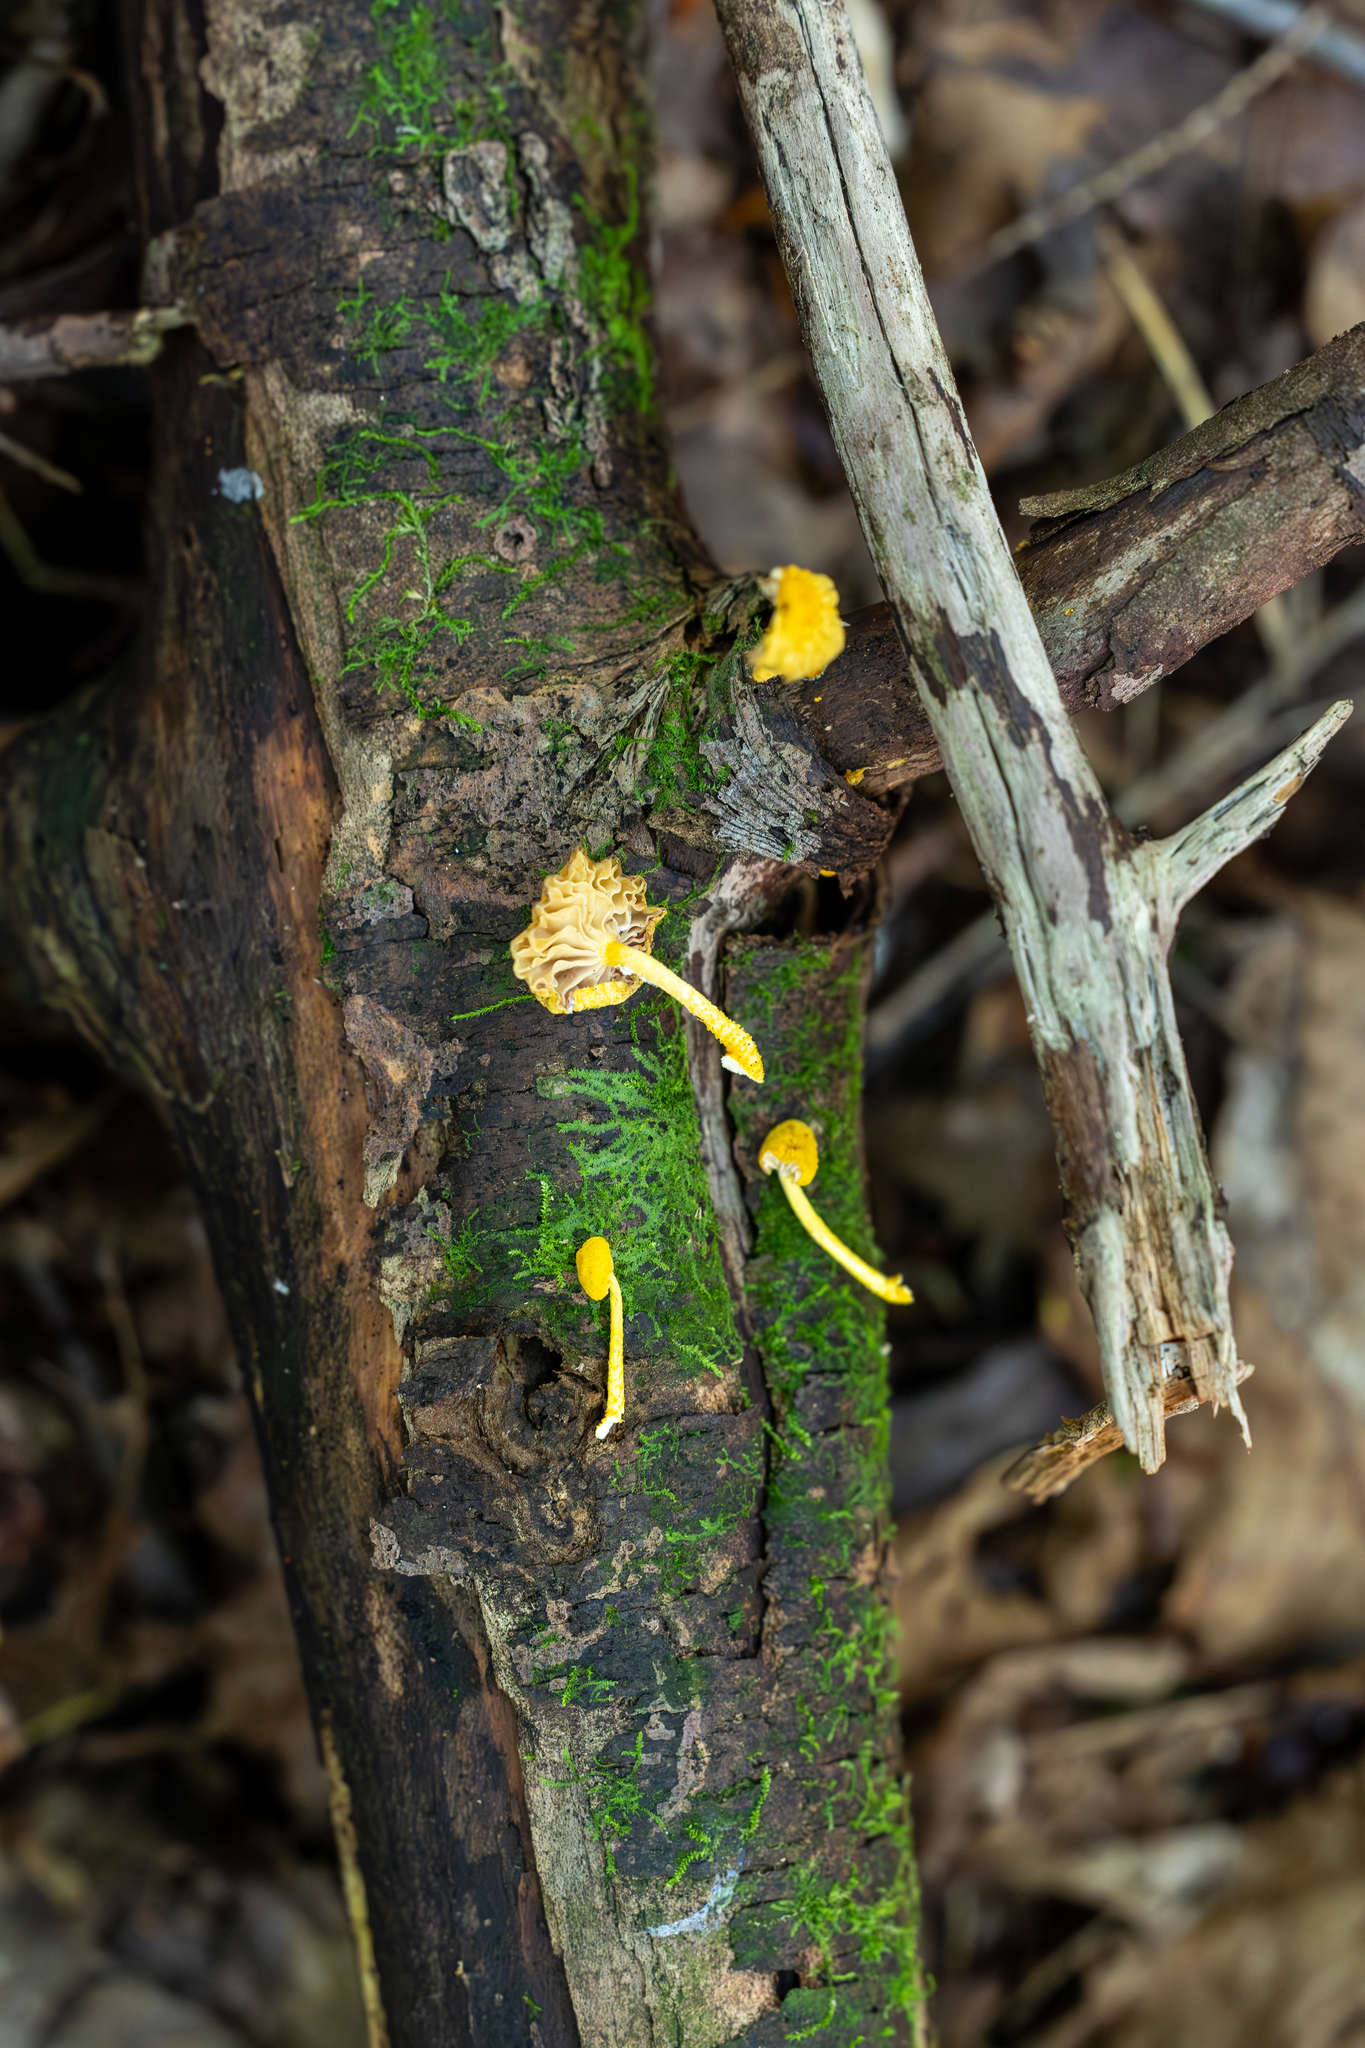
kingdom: Fungi
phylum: Basidiomycota
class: Agaricomycetes
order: Agaricales
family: Physalacriaceae
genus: Cyptotrama
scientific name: Cyptotrama chrysopepla
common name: Golden coincap
